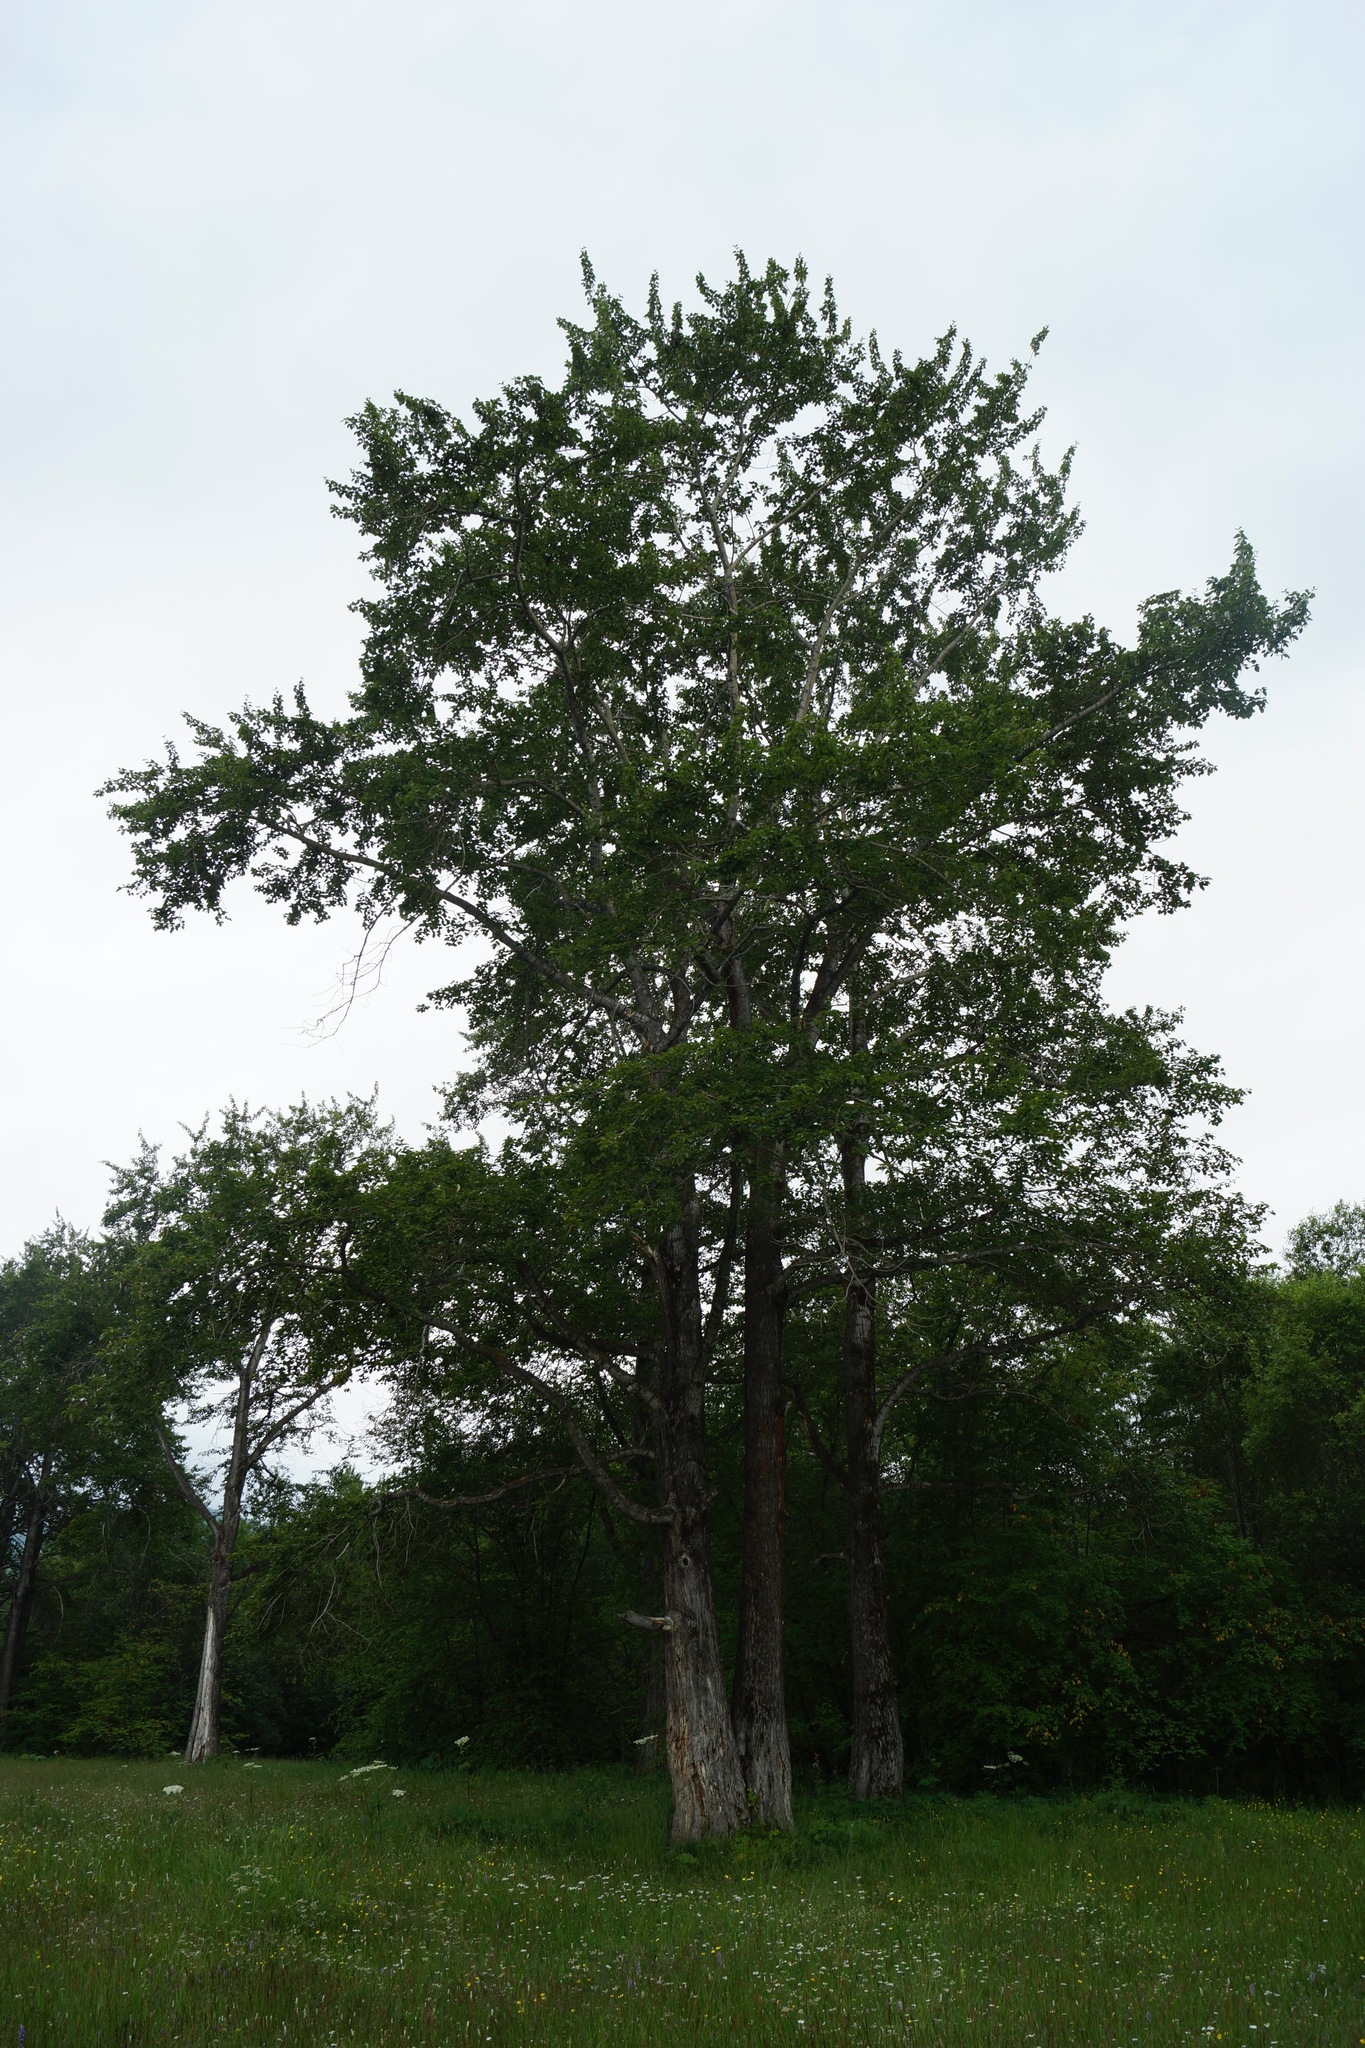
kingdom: Plantae
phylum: Tracheophyta
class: Magnoliopsida
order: Malpighiales
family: Salicaceae
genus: Populus
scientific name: Populus suaveolens
